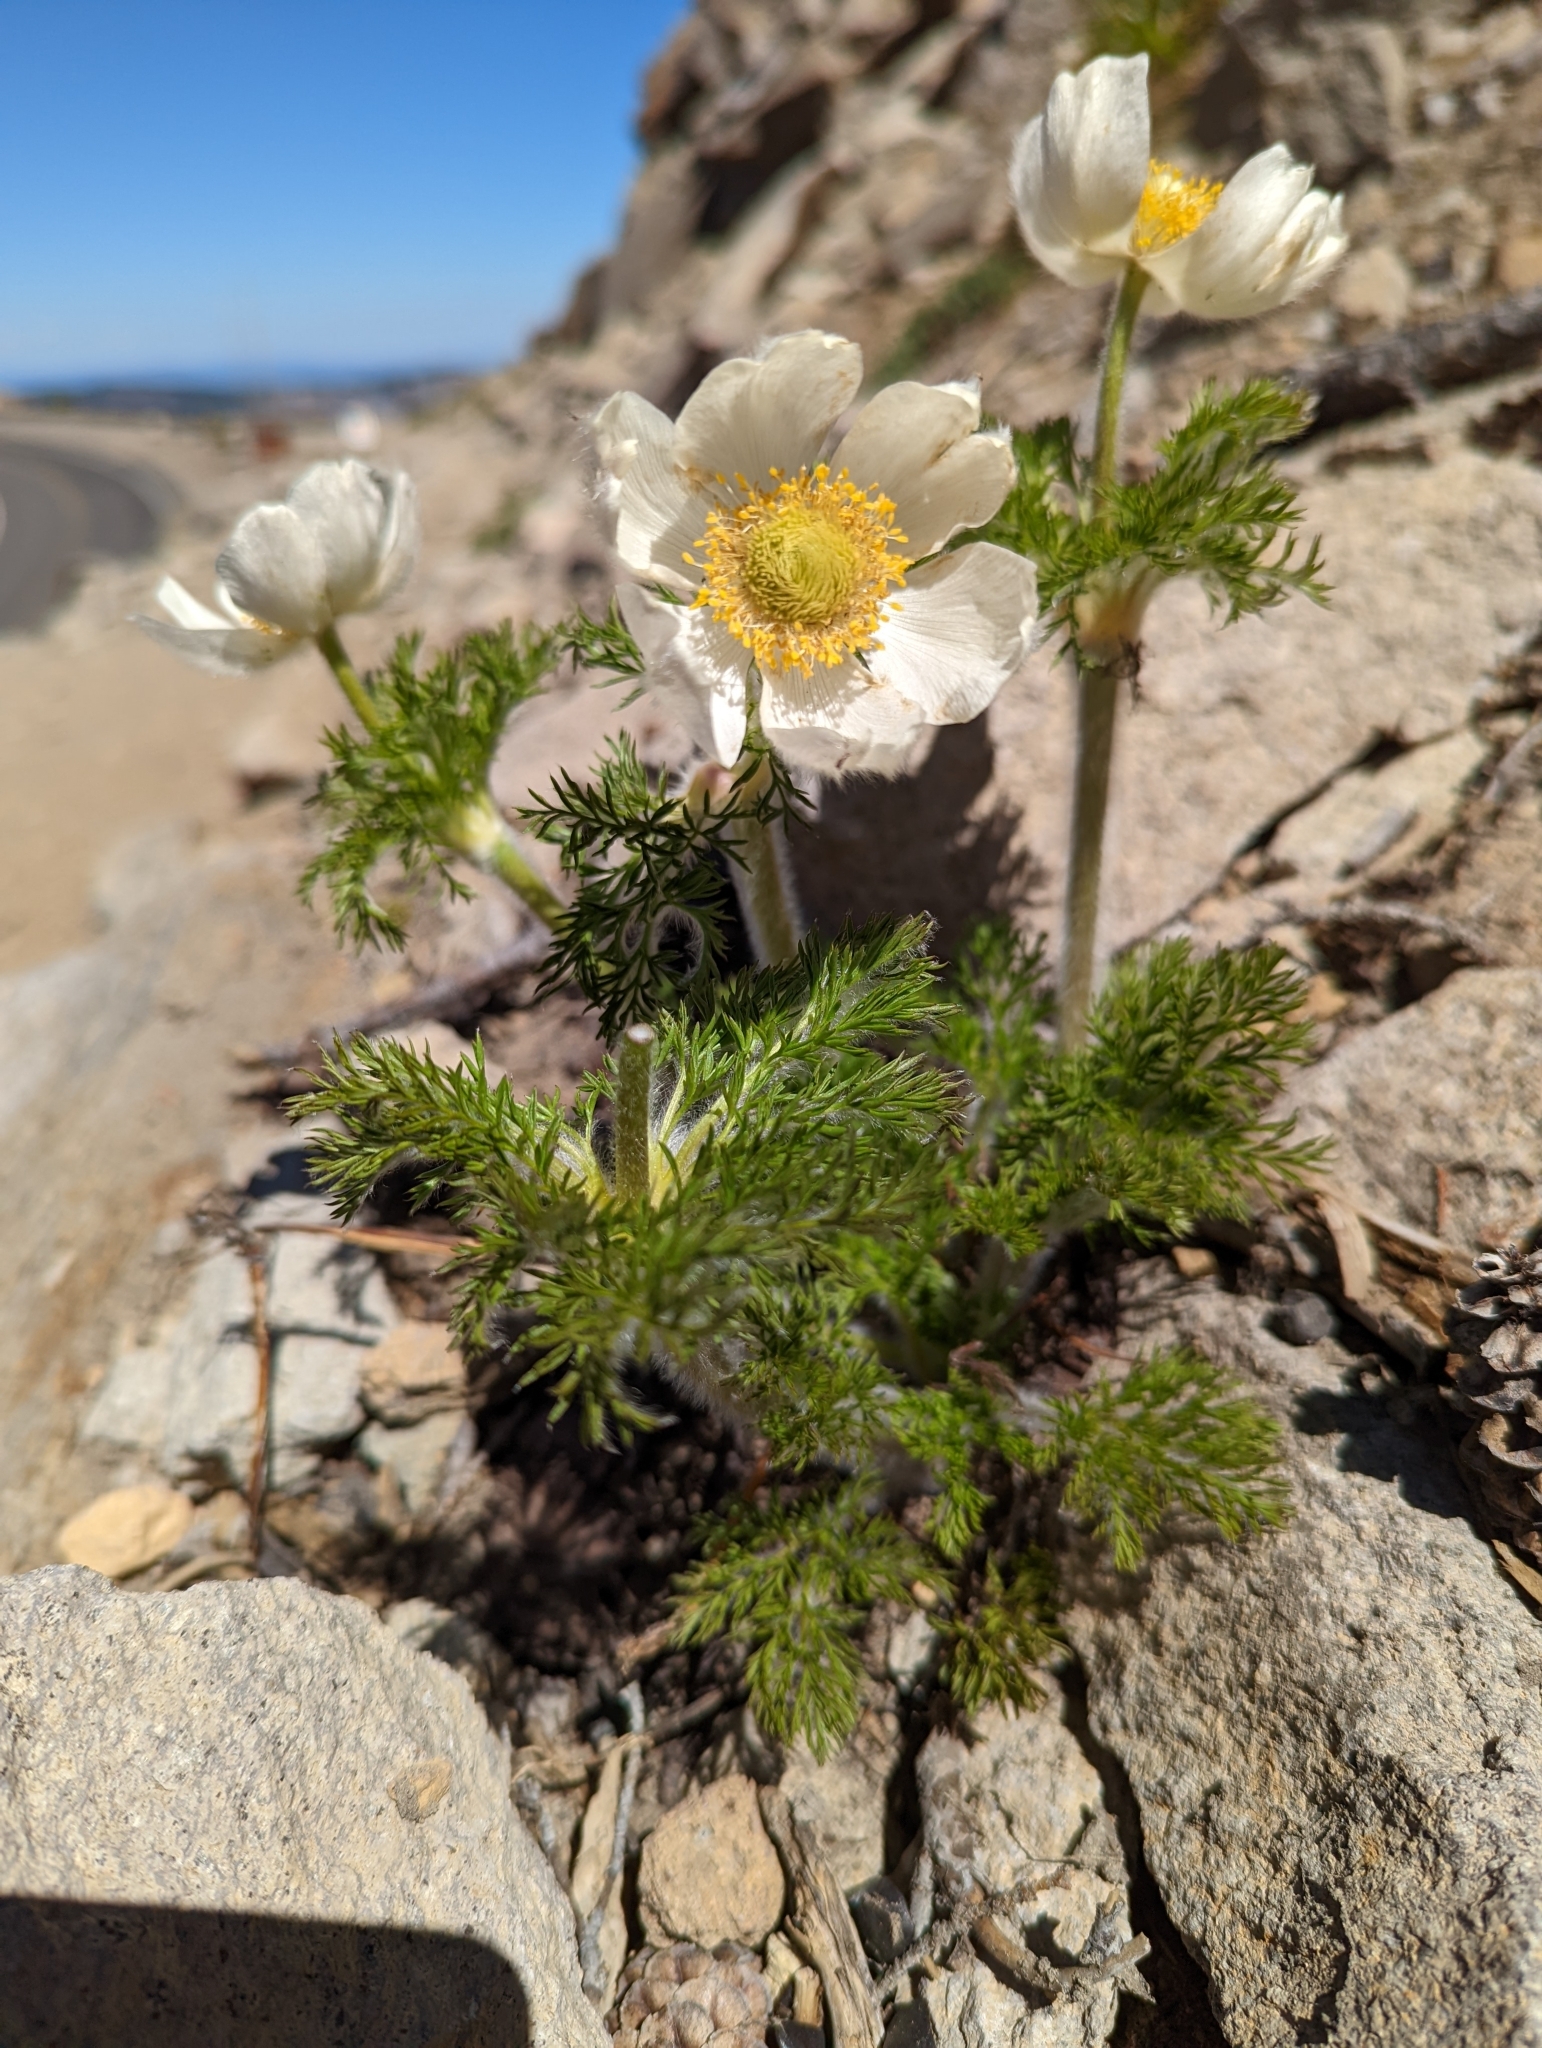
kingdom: Plantae
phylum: Tracheophyta
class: Magnoliopsida
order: Ranunculales
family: Ranunculaceae
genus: Pulsatilla
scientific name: Pulsatilla occidentalis
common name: Mountain pasqueflower
